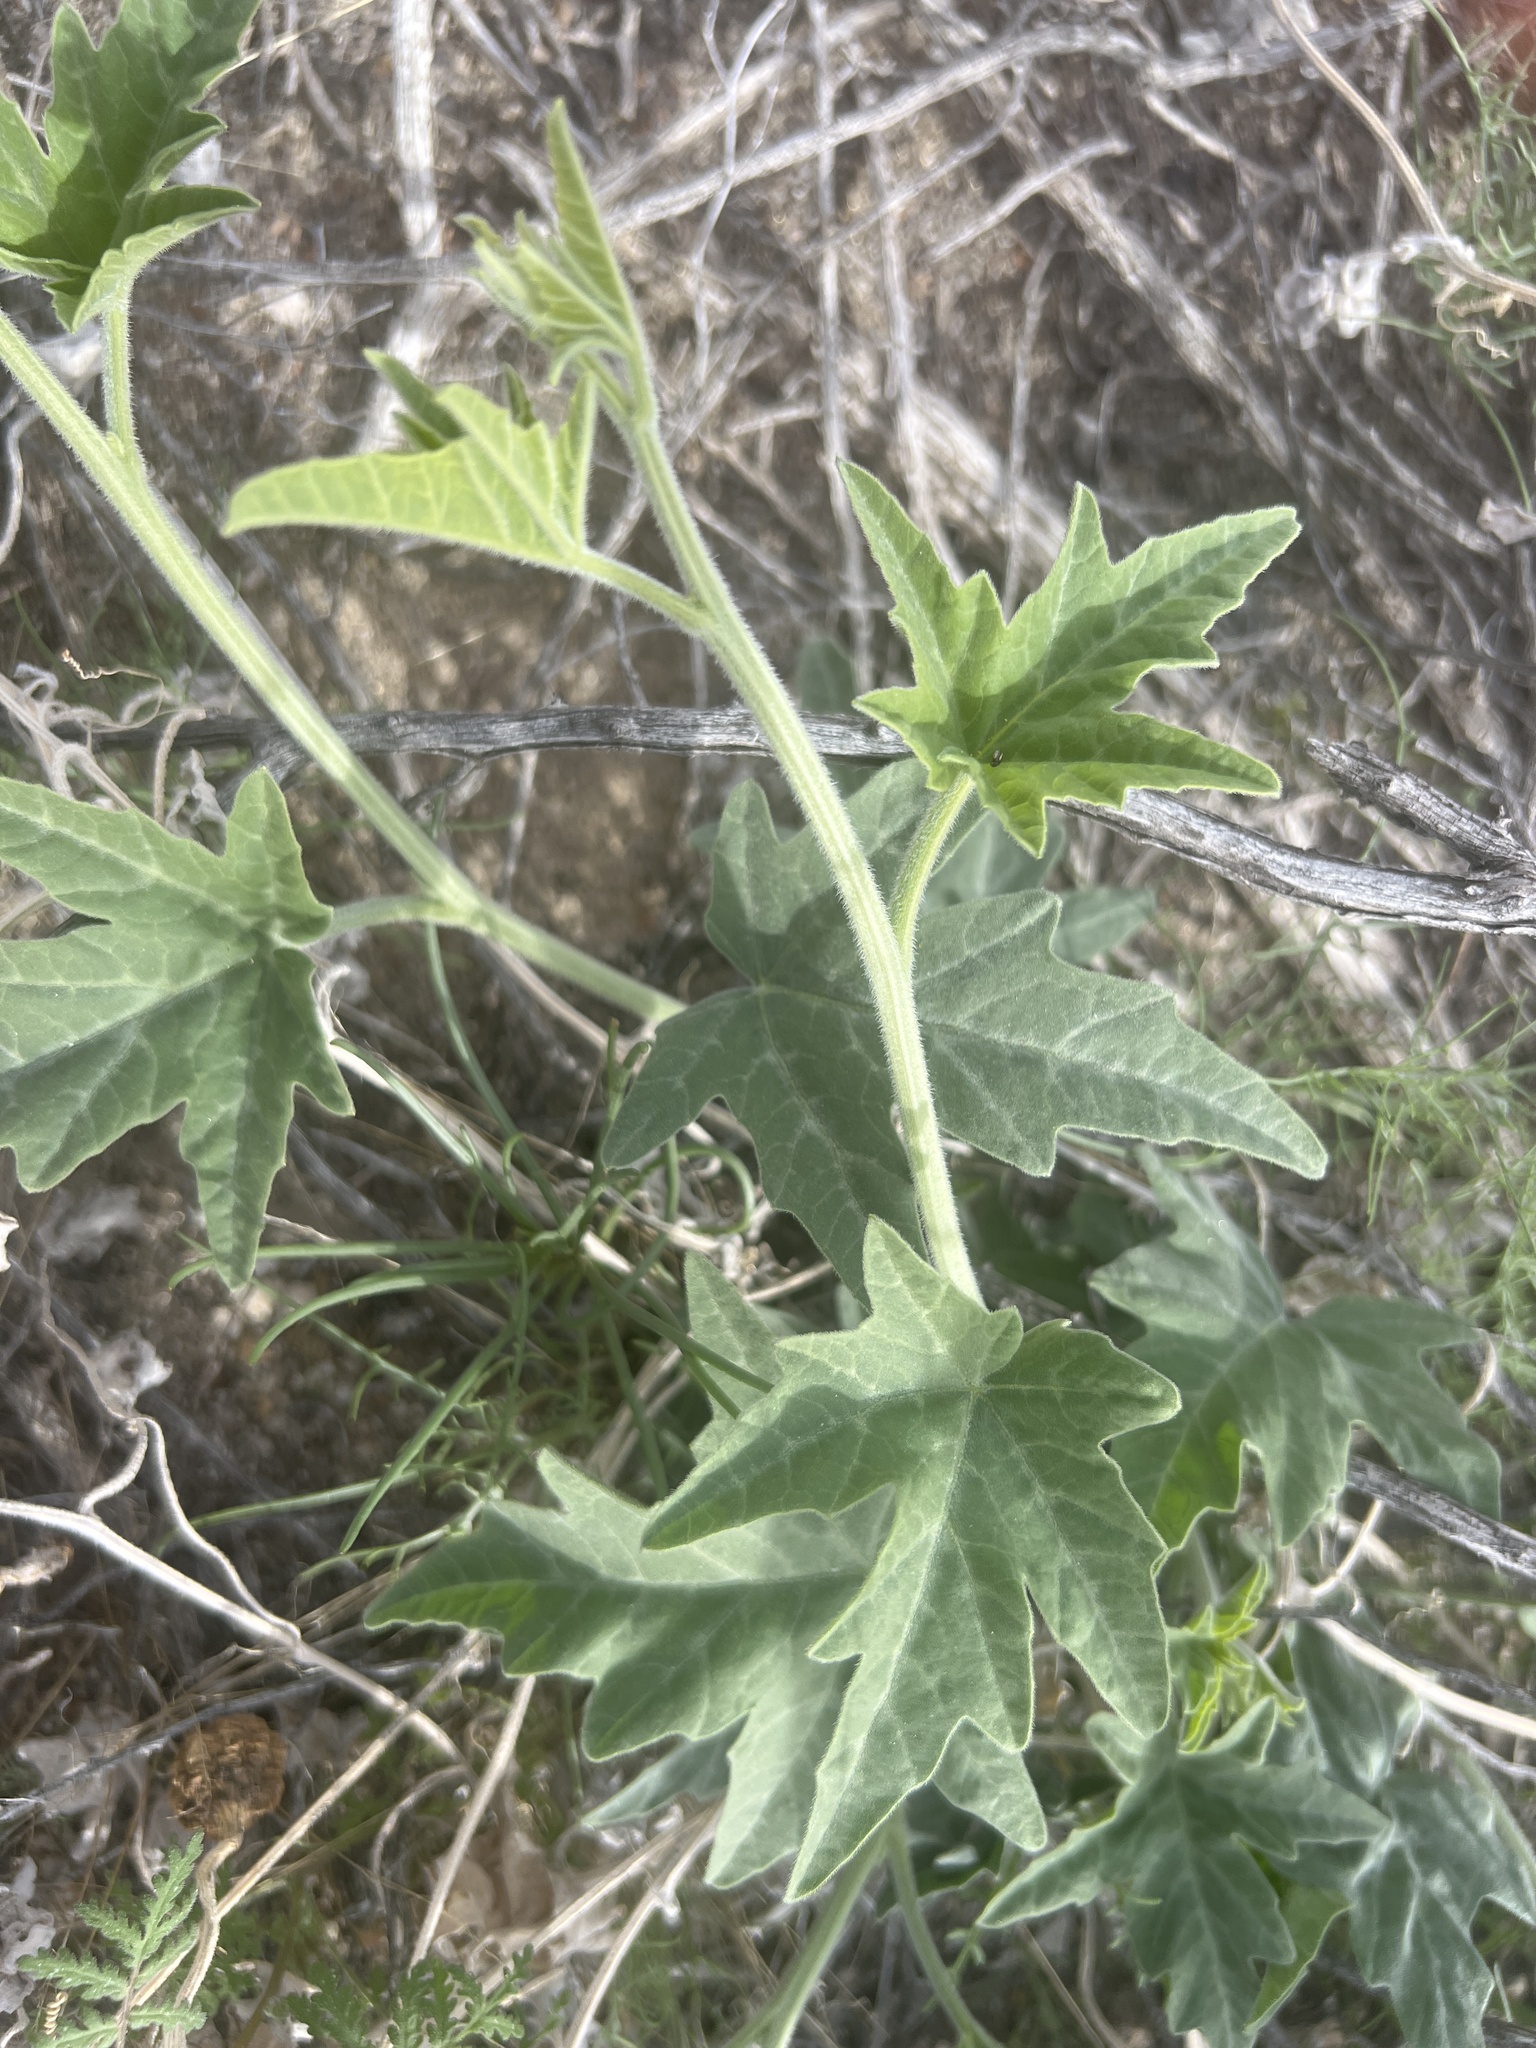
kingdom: Plantae
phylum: Tracheophyta
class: Magnoliopsida
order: Cucurbitales
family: Cucurbitaceae
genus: Cucurbita
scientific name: Cucurbita palmata
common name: Coyote-melon
